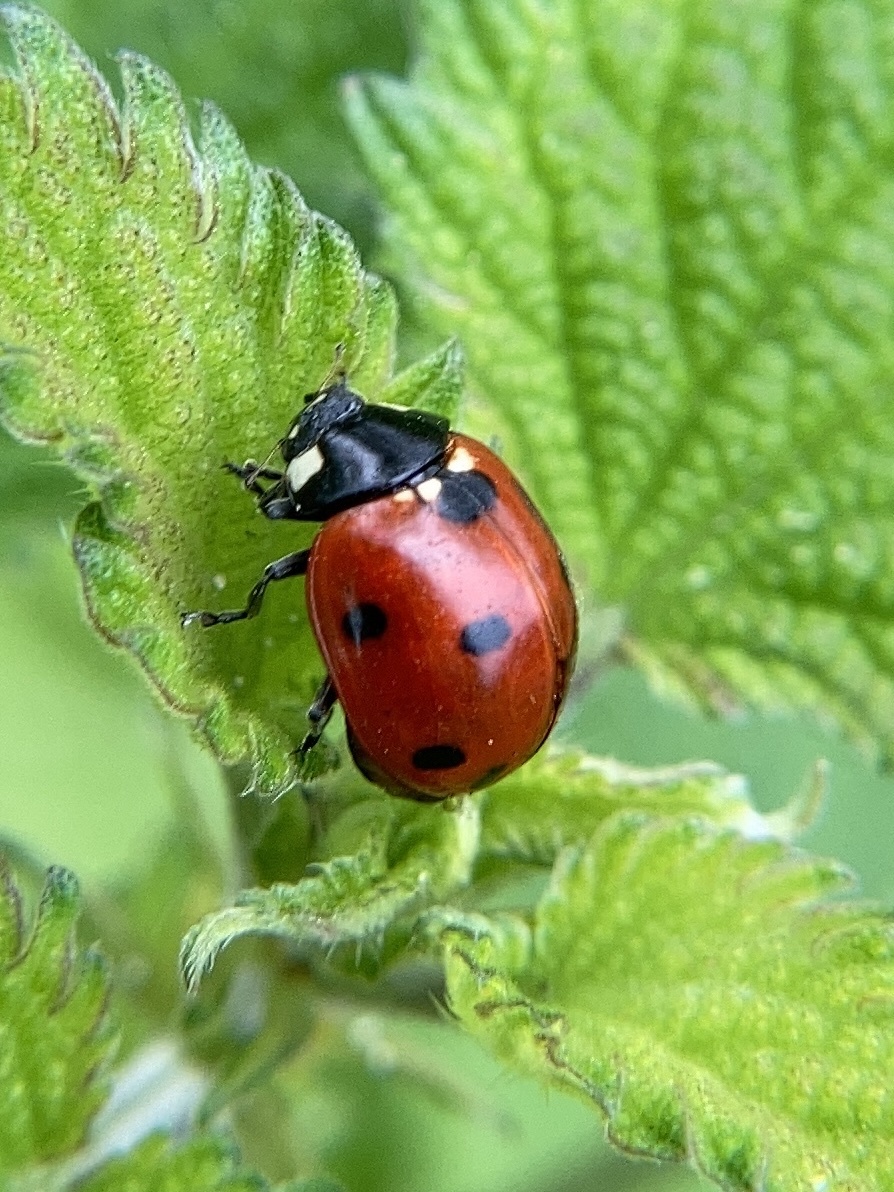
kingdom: Animalia
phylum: Arthropoda
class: Insecta
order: Coleoptera
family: Coccinellidae
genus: Coccinella
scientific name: Coccinella septempunctata
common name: Sevenspotted lady beetle
